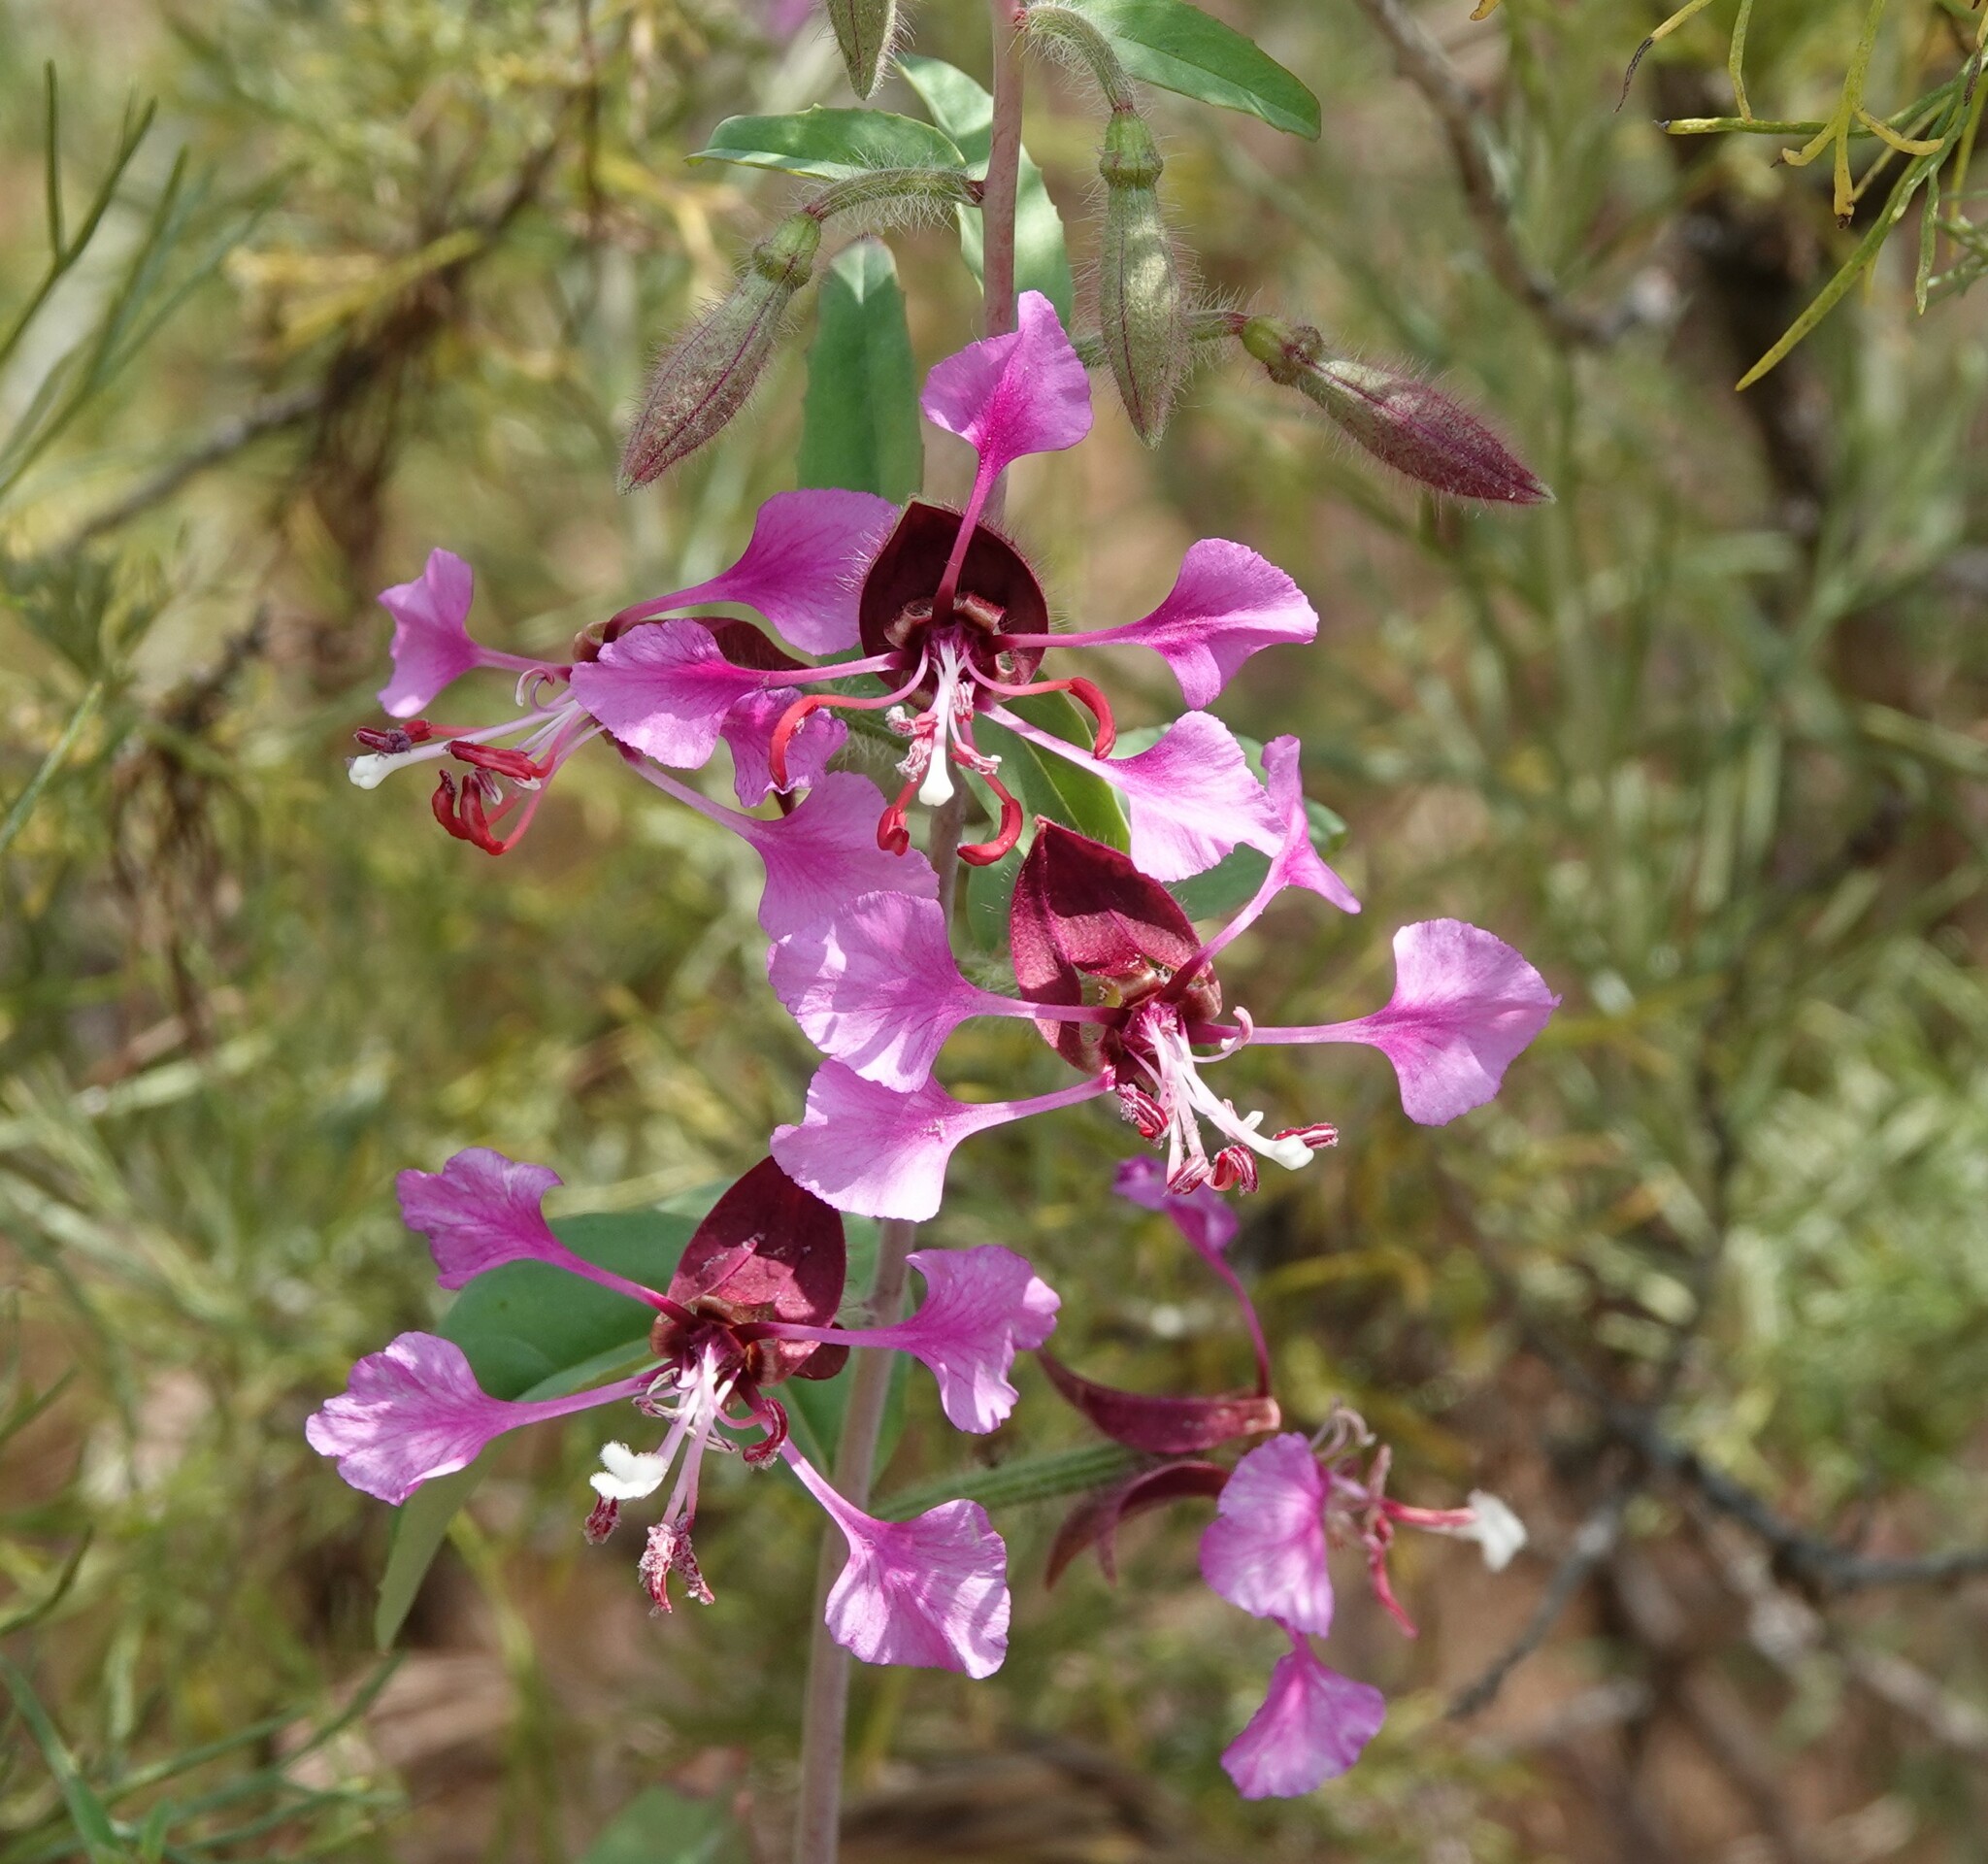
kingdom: Plantae
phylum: Tracheophyta
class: Magnoliopsida
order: Myrtales
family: Onagraceae
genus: Clarkia
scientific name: Clarkia unguiculata
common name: Clarkia
